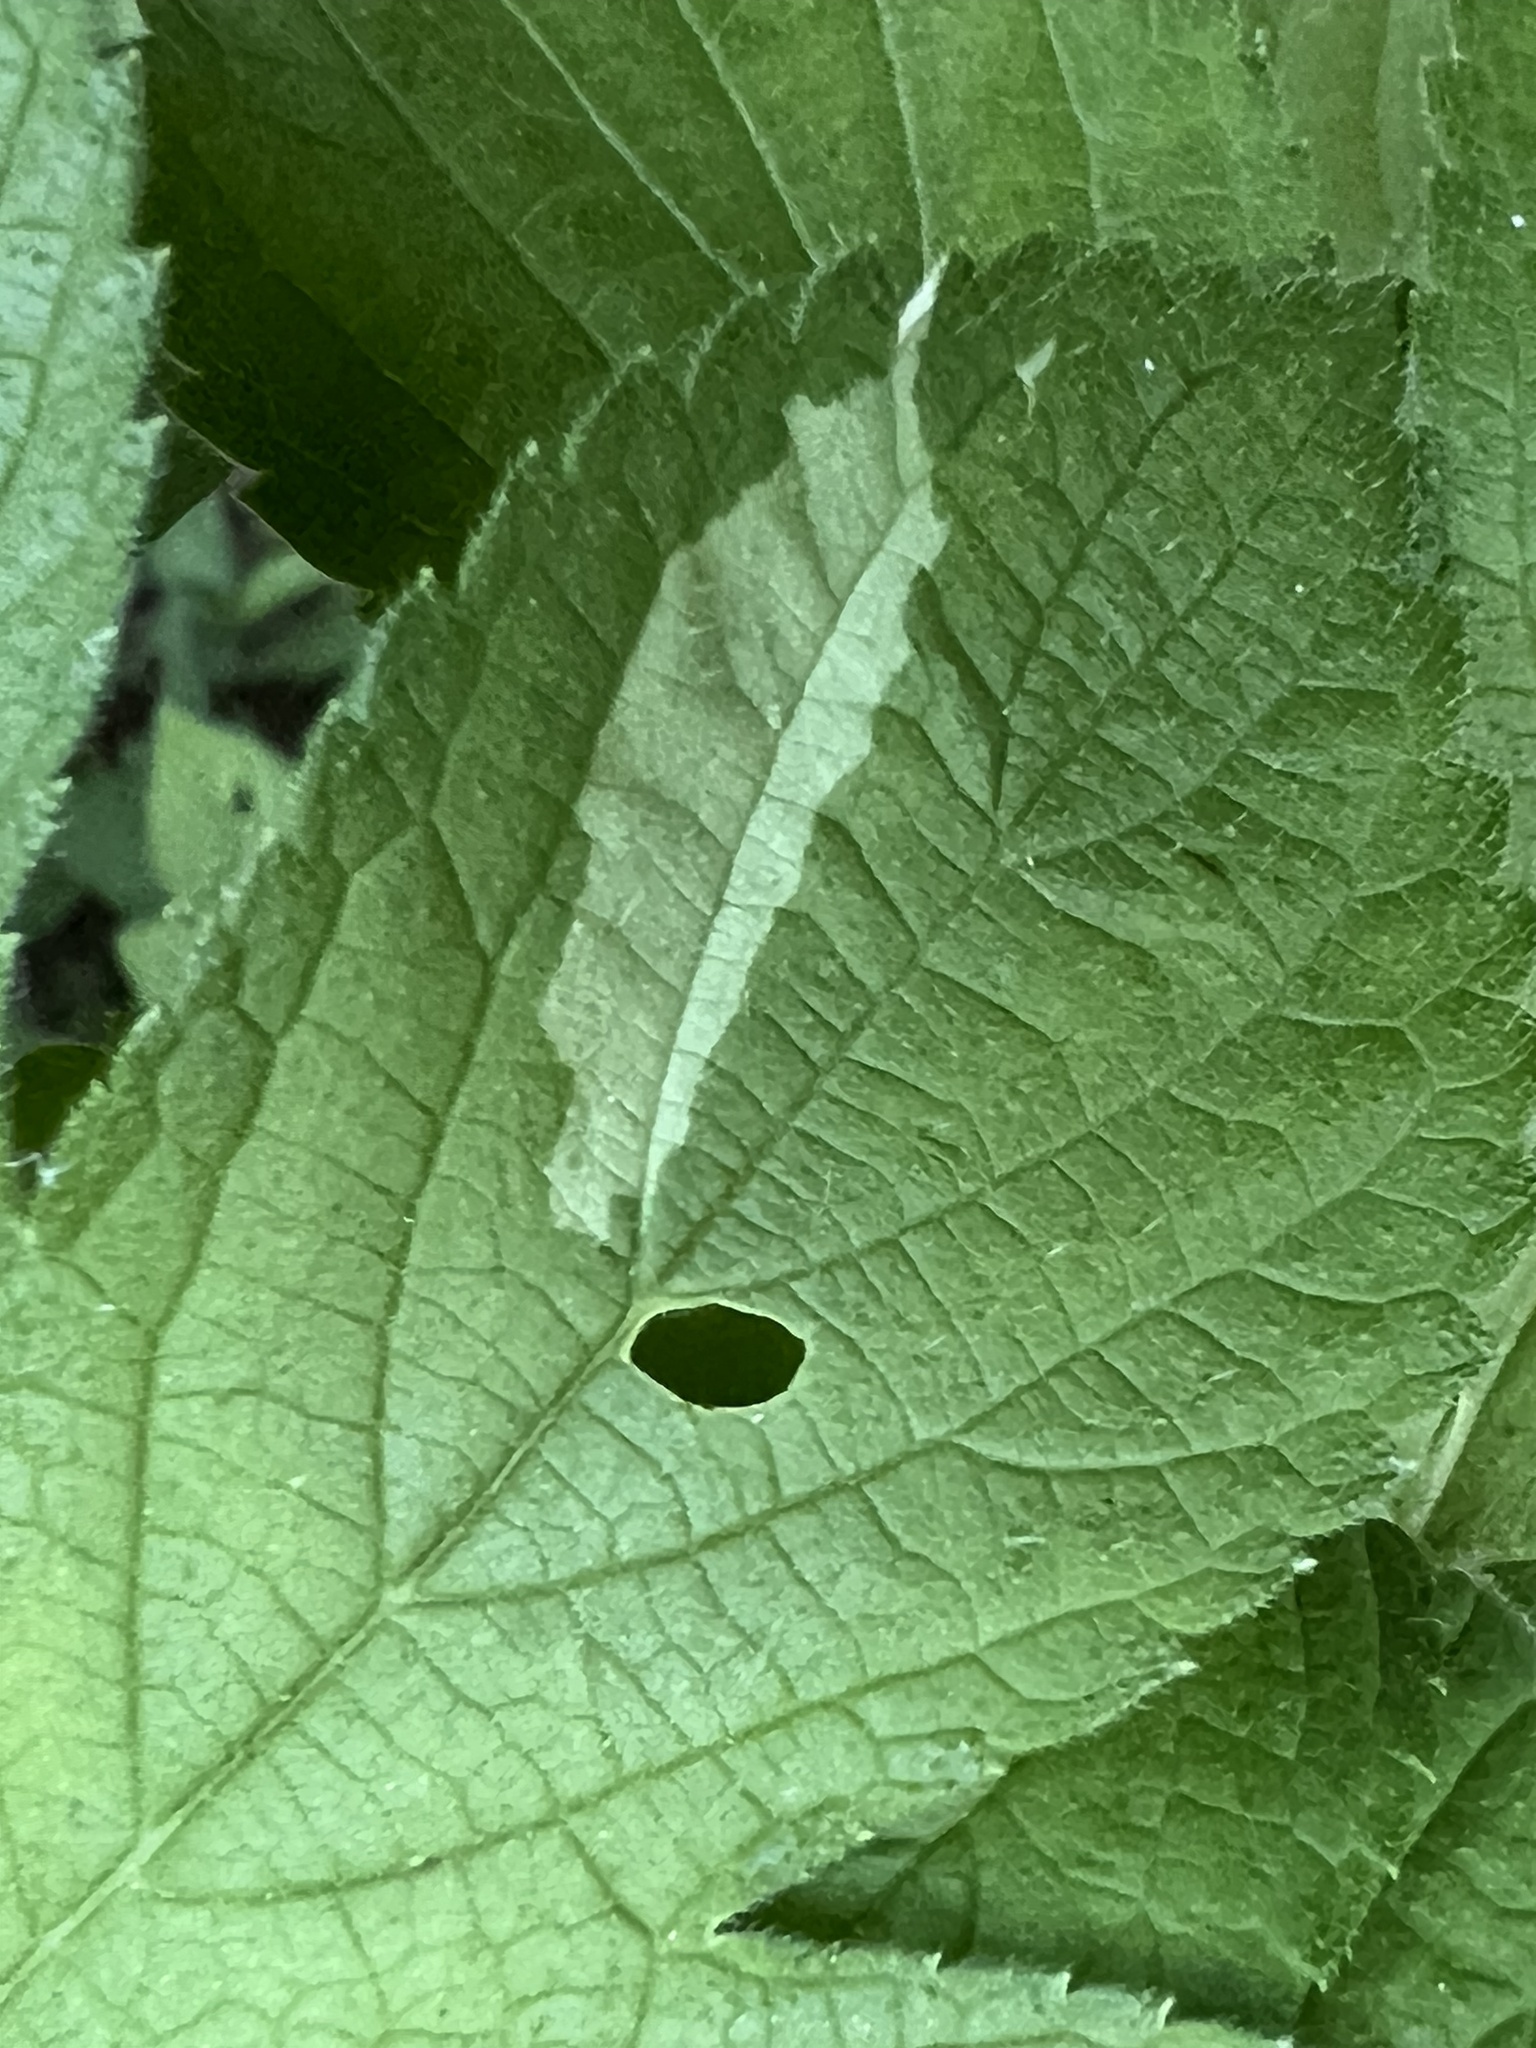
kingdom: Plantae
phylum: Tracheophyta
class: Magnoliopsida
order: Rosales
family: Cannabaceae
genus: Humulus
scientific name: Humulus scandens
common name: Japanese hop
